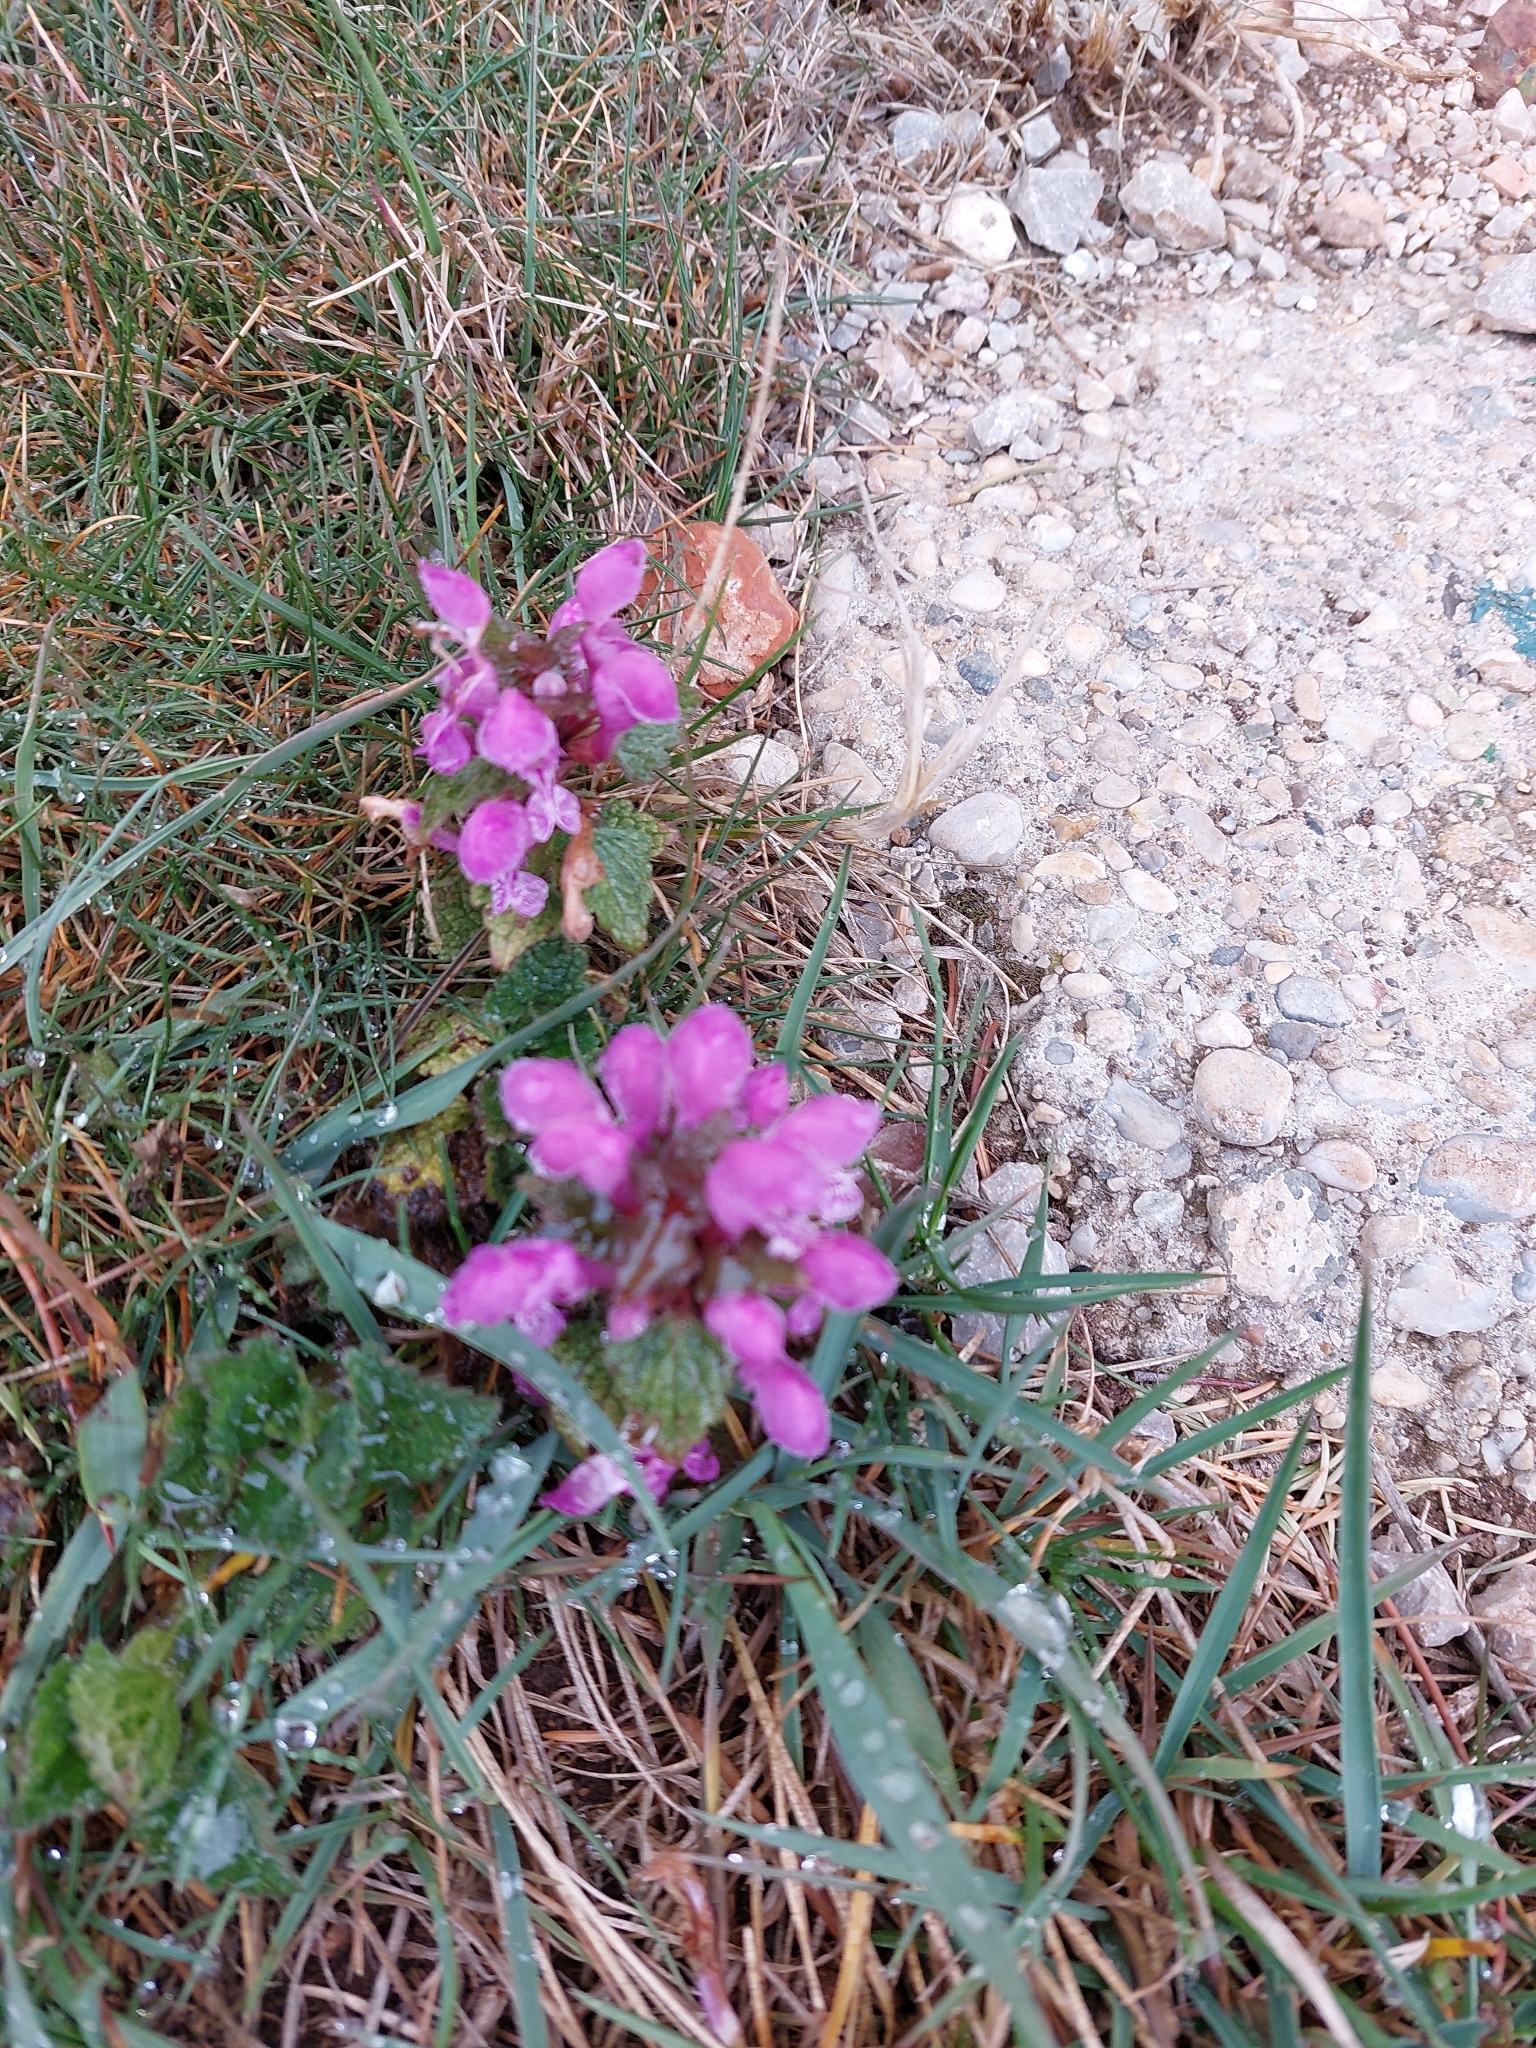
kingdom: Plantae
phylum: Tracheophyta
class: Magnoliopsida
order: Lamiales
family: Lamiaceae
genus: Lamium
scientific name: Lamium maculatum
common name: Spotted dead-nettle
